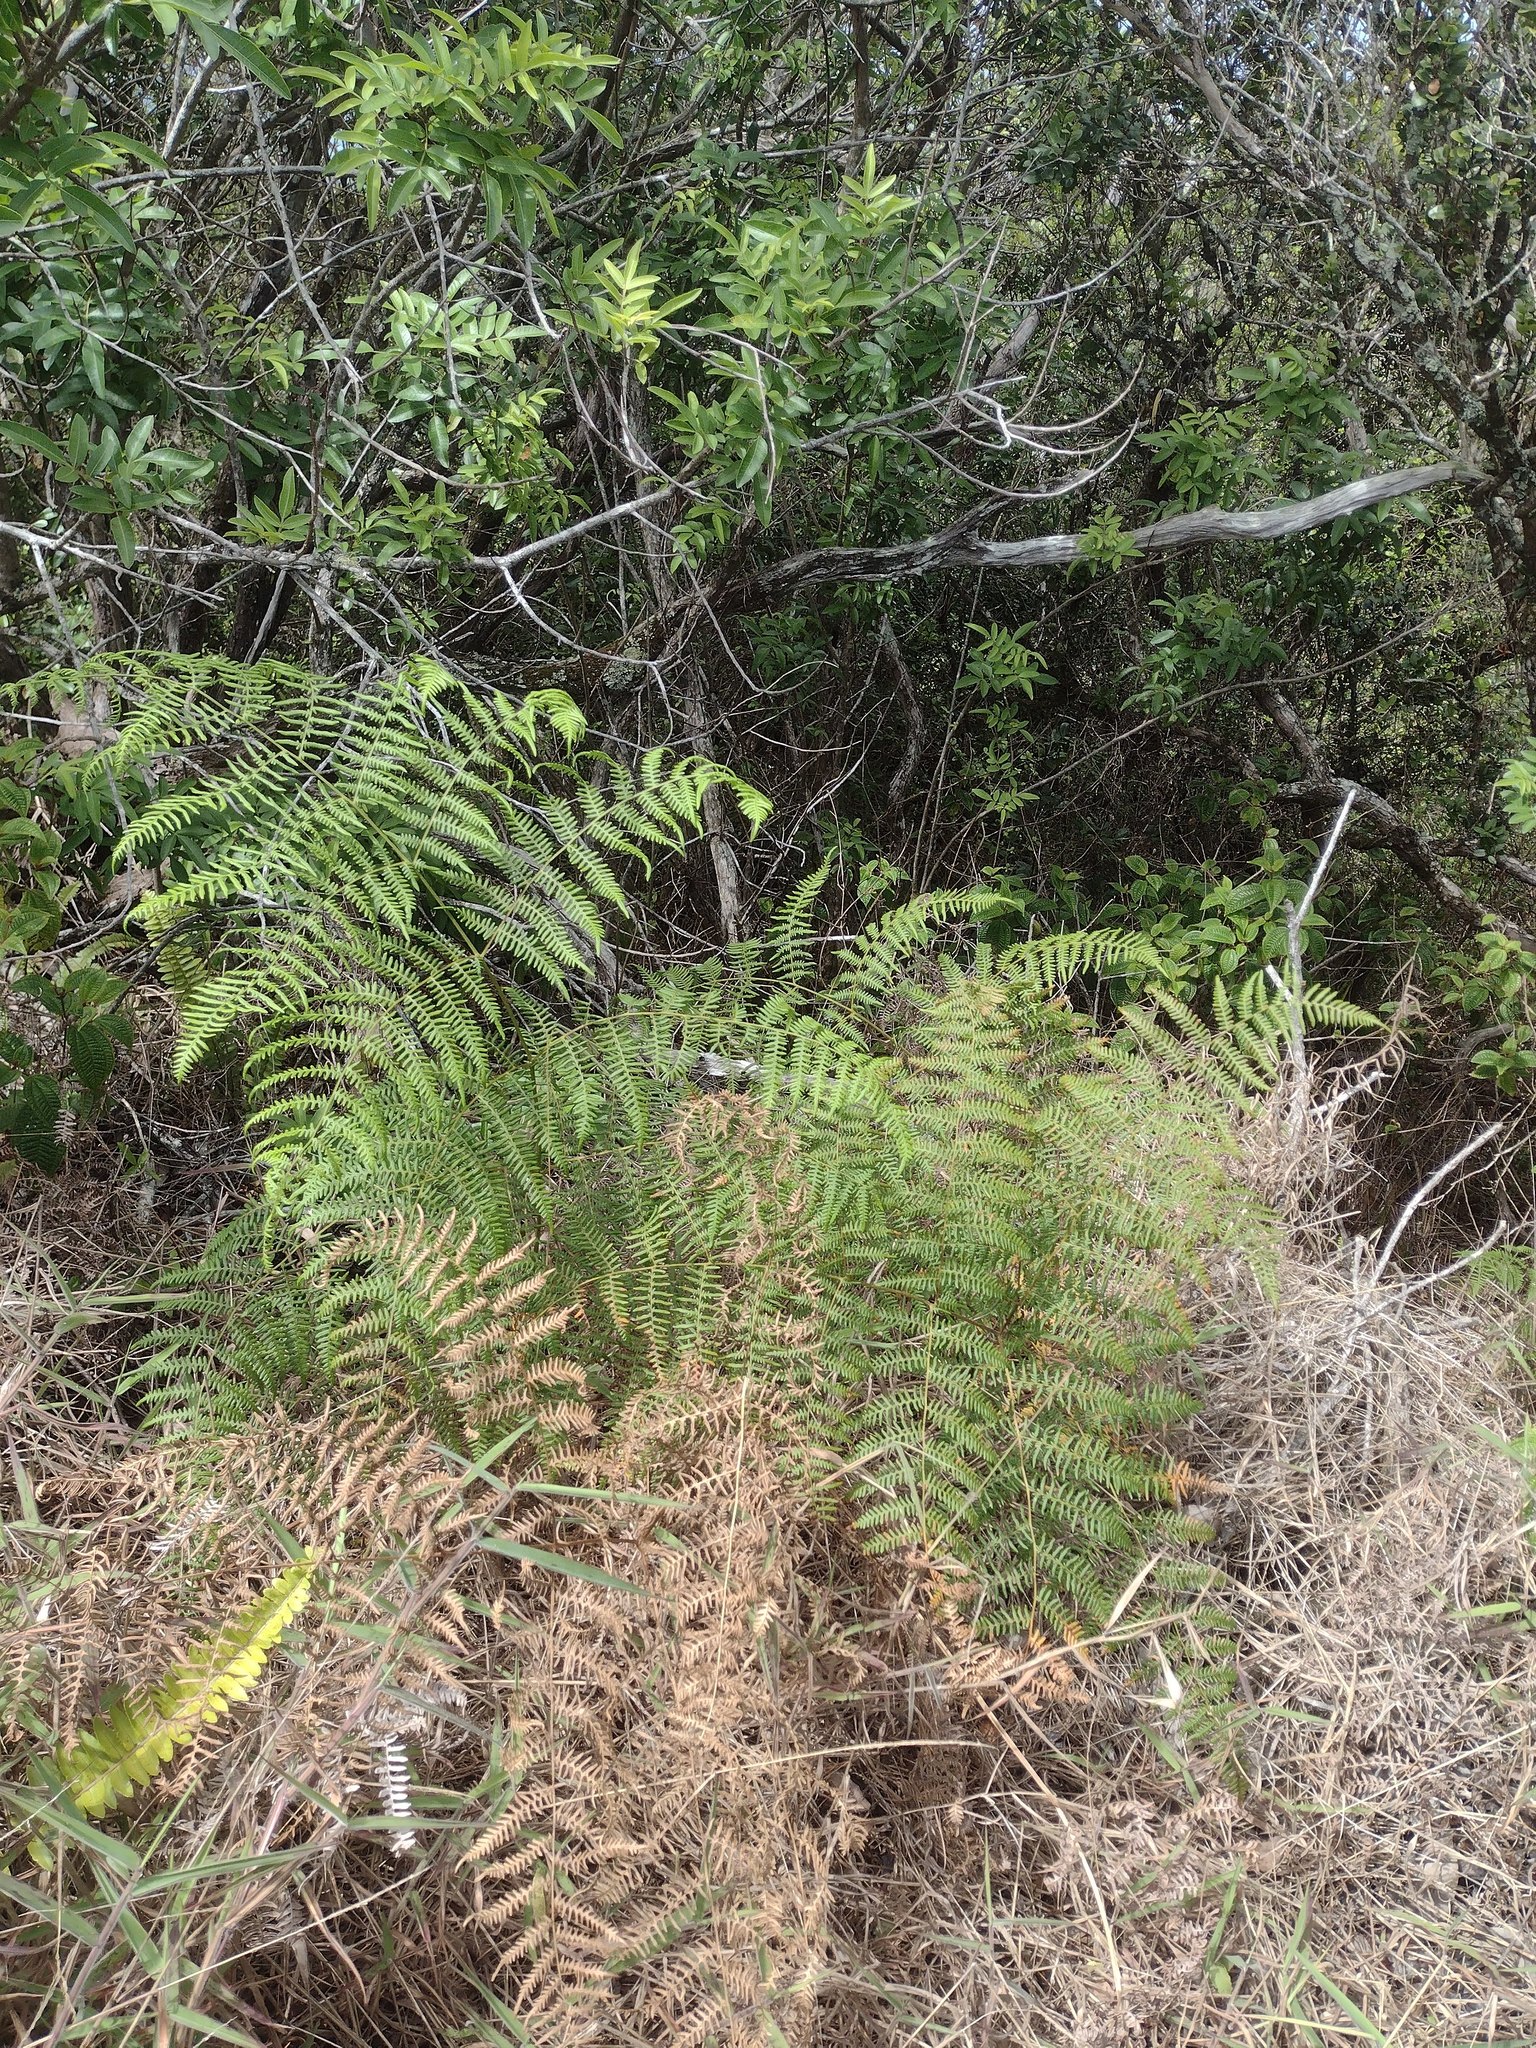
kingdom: Plantae
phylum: Tracheophyta
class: Polypodiopsida
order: Polypodiales
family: Dennstaedtiaceae
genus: Pteridium
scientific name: Pteridium aquilinum
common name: Bracken
